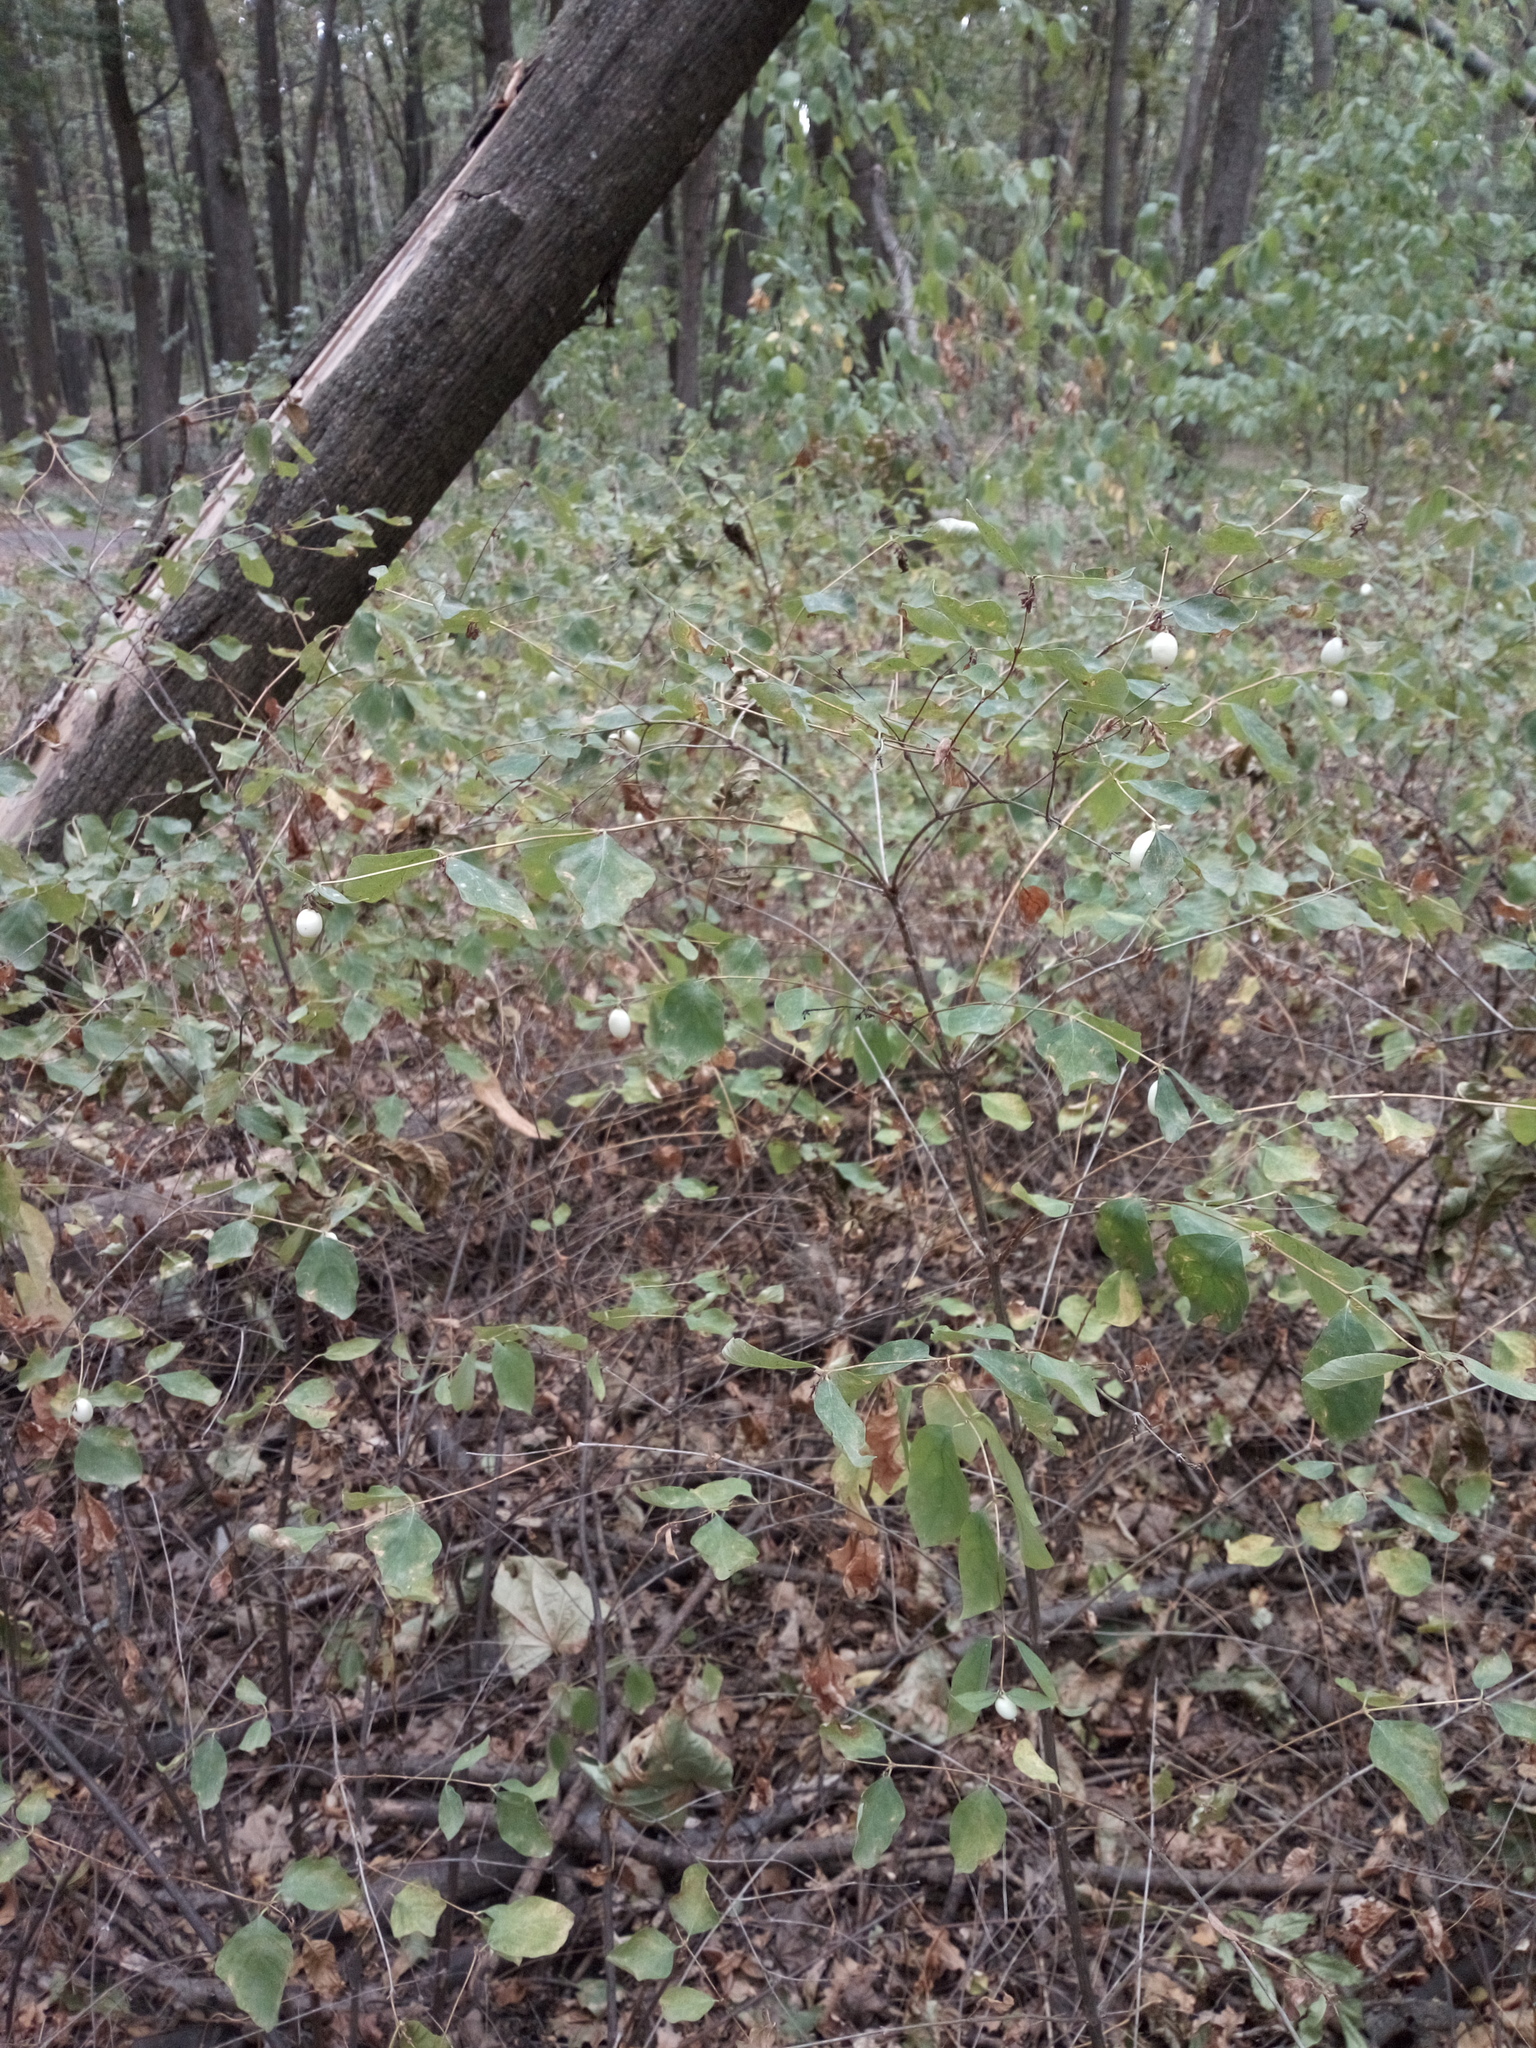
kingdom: Plantae
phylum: Tracheophyta
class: Magnoliopsida
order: Dipsacales
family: Caprifoliaceae
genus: Symphoricarpos
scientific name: Symphoricarpos albus
